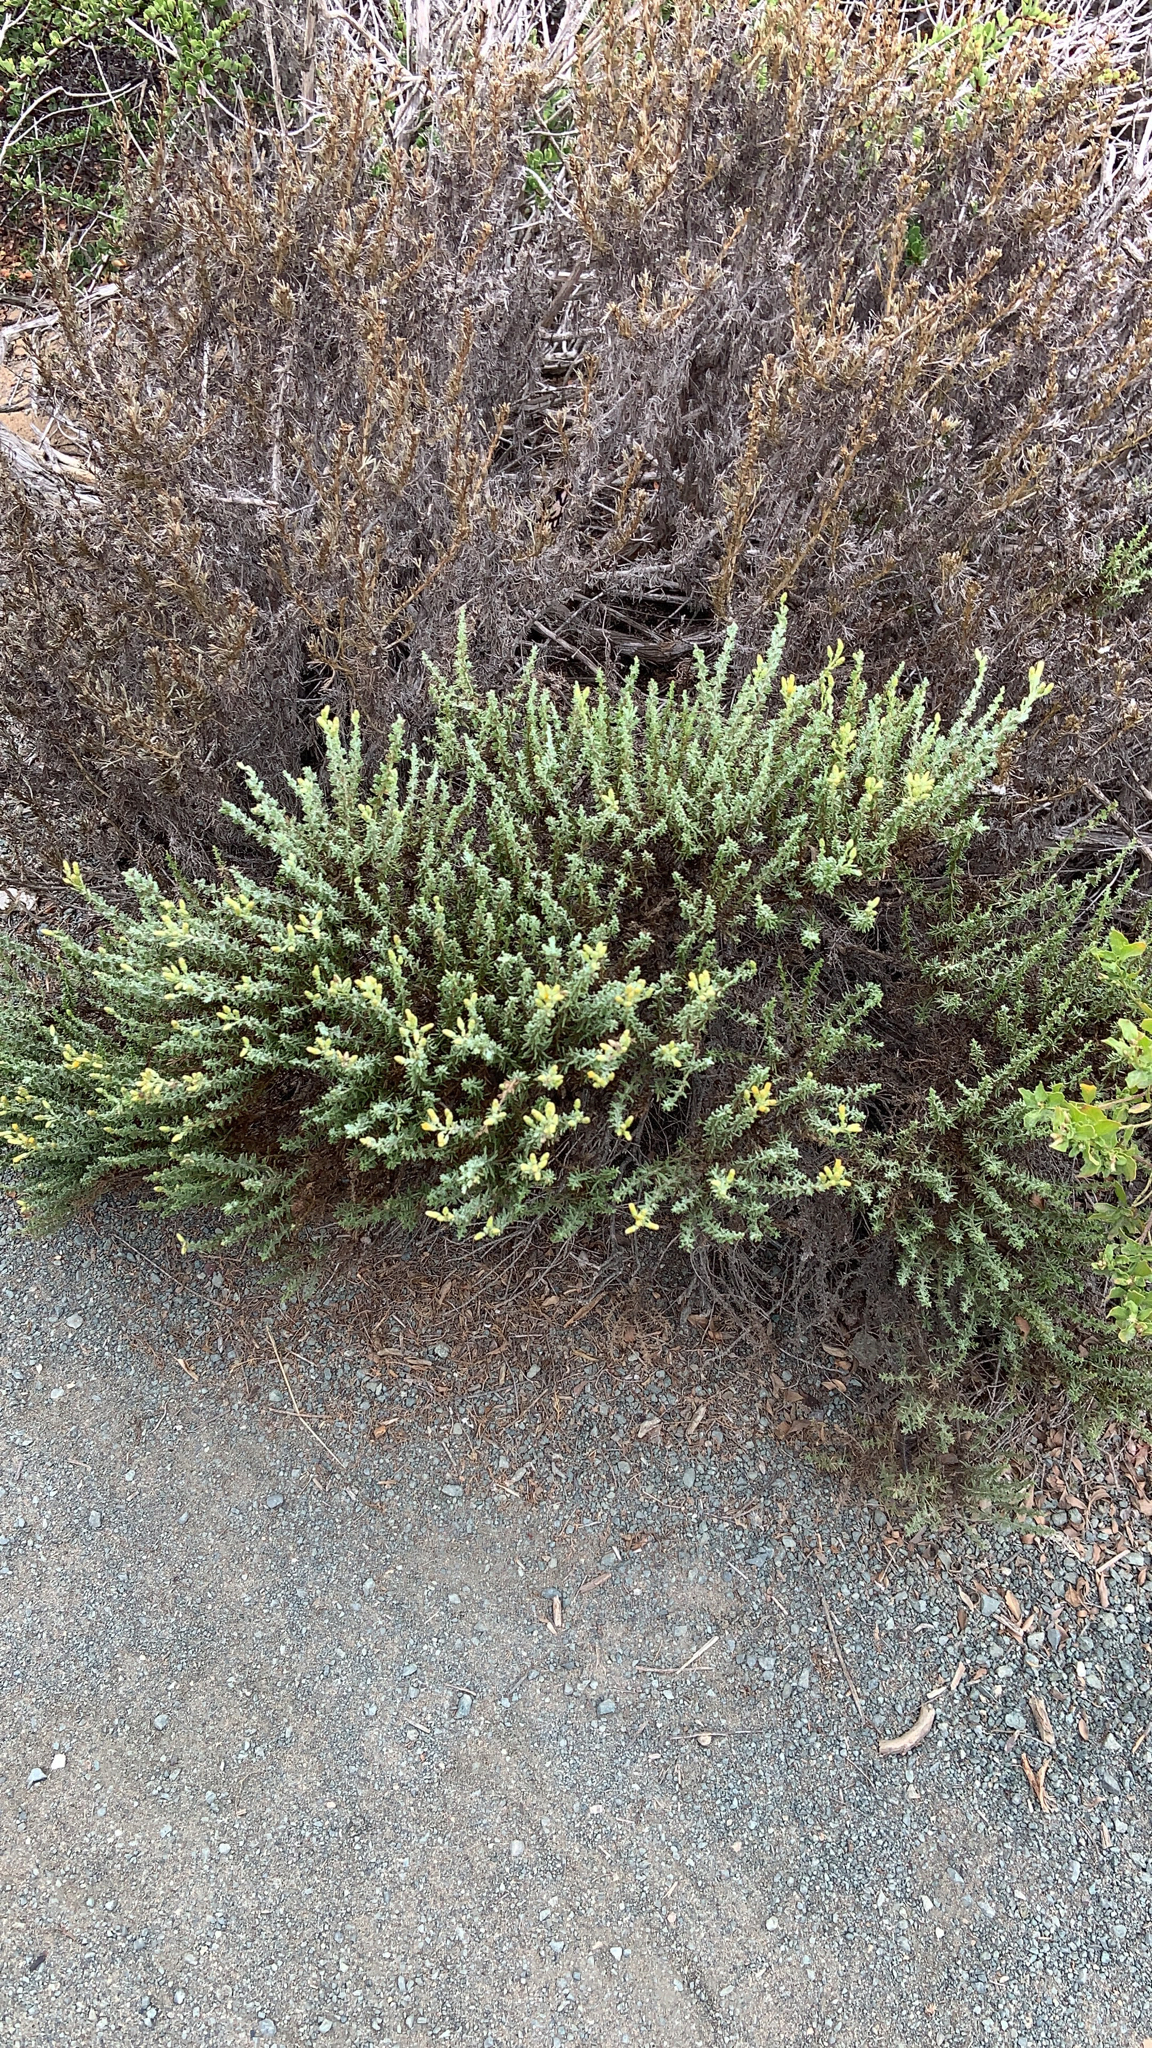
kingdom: Plantae
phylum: Tracheophyta
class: Magnoliopsida
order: Asterales
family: Asteraceae
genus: Ericameria
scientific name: Ericameria ericoides
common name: California goldenbush
